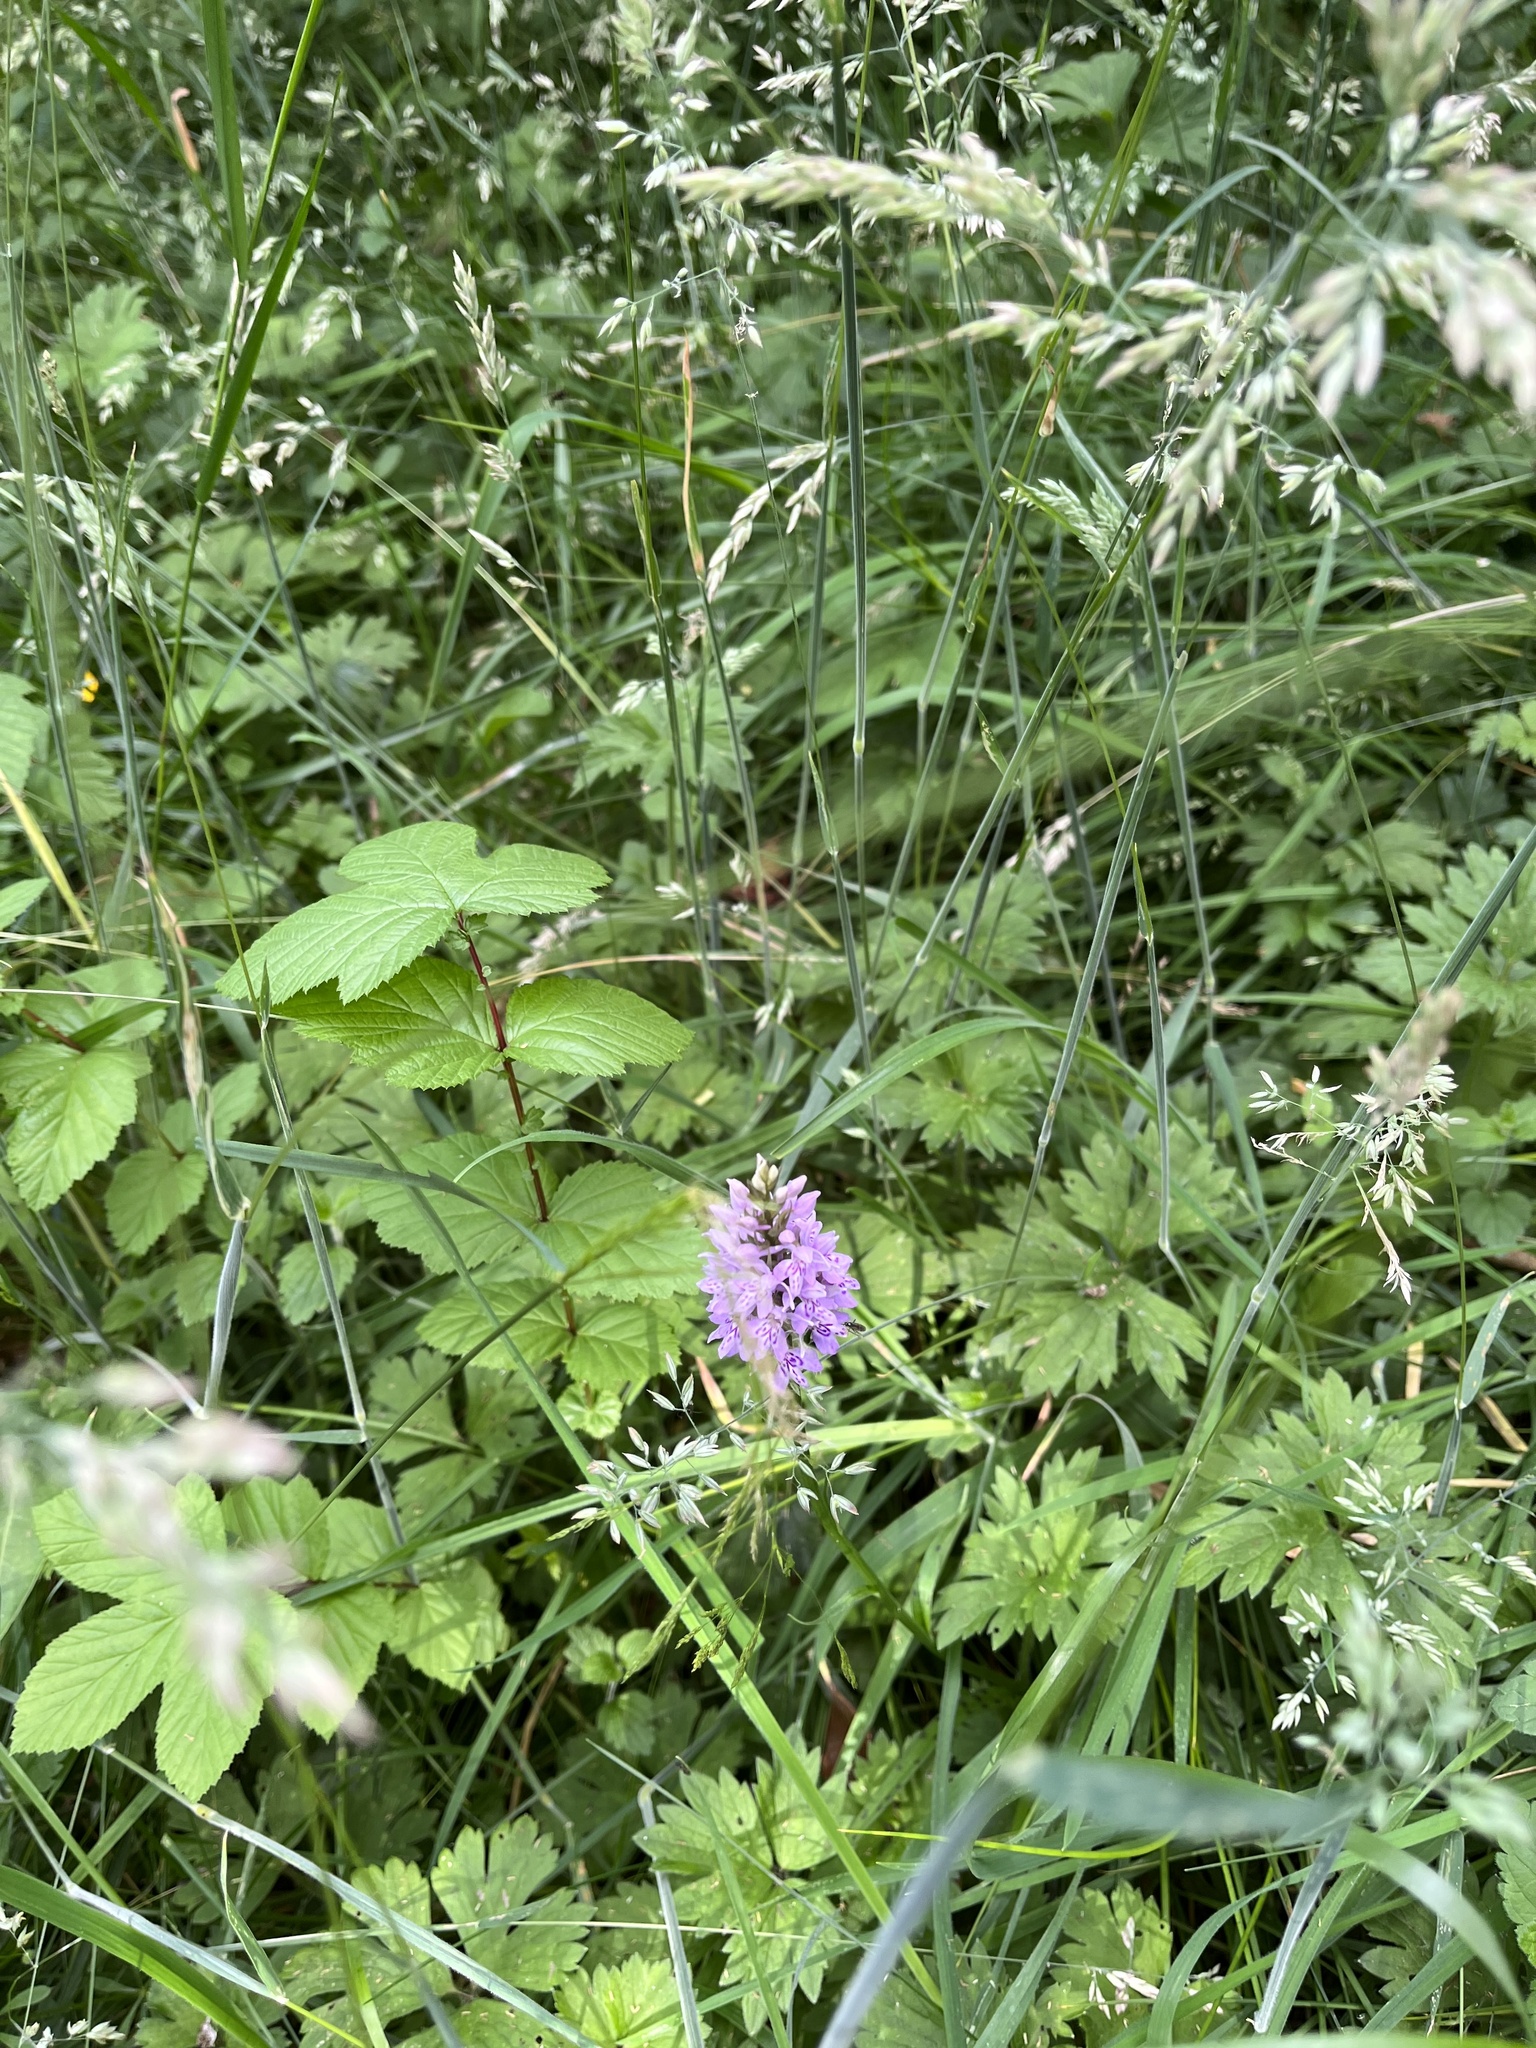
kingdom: Plantae
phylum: Tracheophyta
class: Liliopsida
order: Asparagales
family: Orchidaceae
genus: Dactylorhiza
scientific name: Dactylorhiza maculata
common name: Heath spotted-orchid
